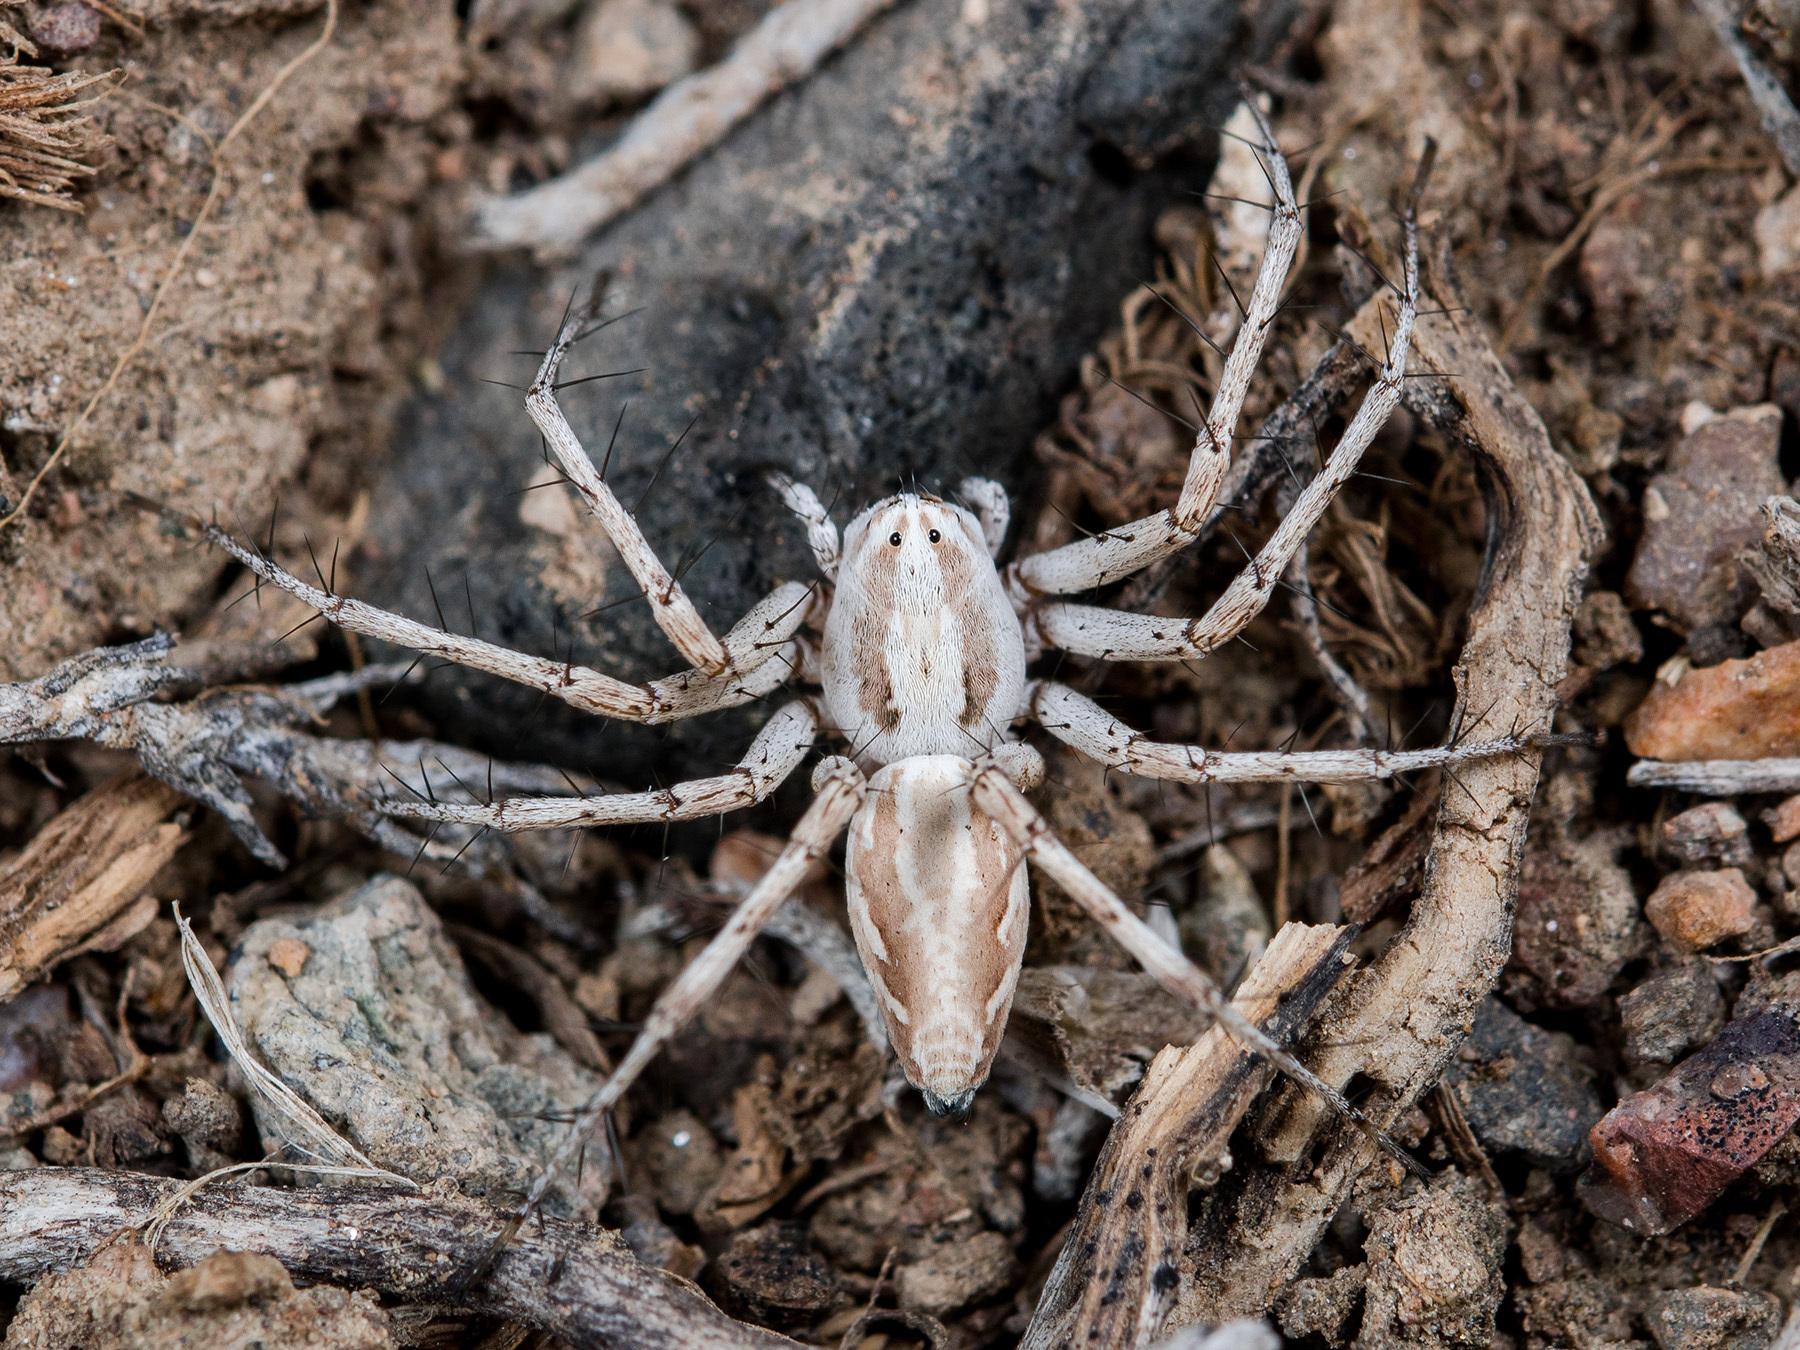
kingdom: Animalia
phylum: Arthropoda
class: Arachnida
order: Araneae
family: Oxyopidae
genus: Oxyopes
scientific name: Oxyopes globifer
